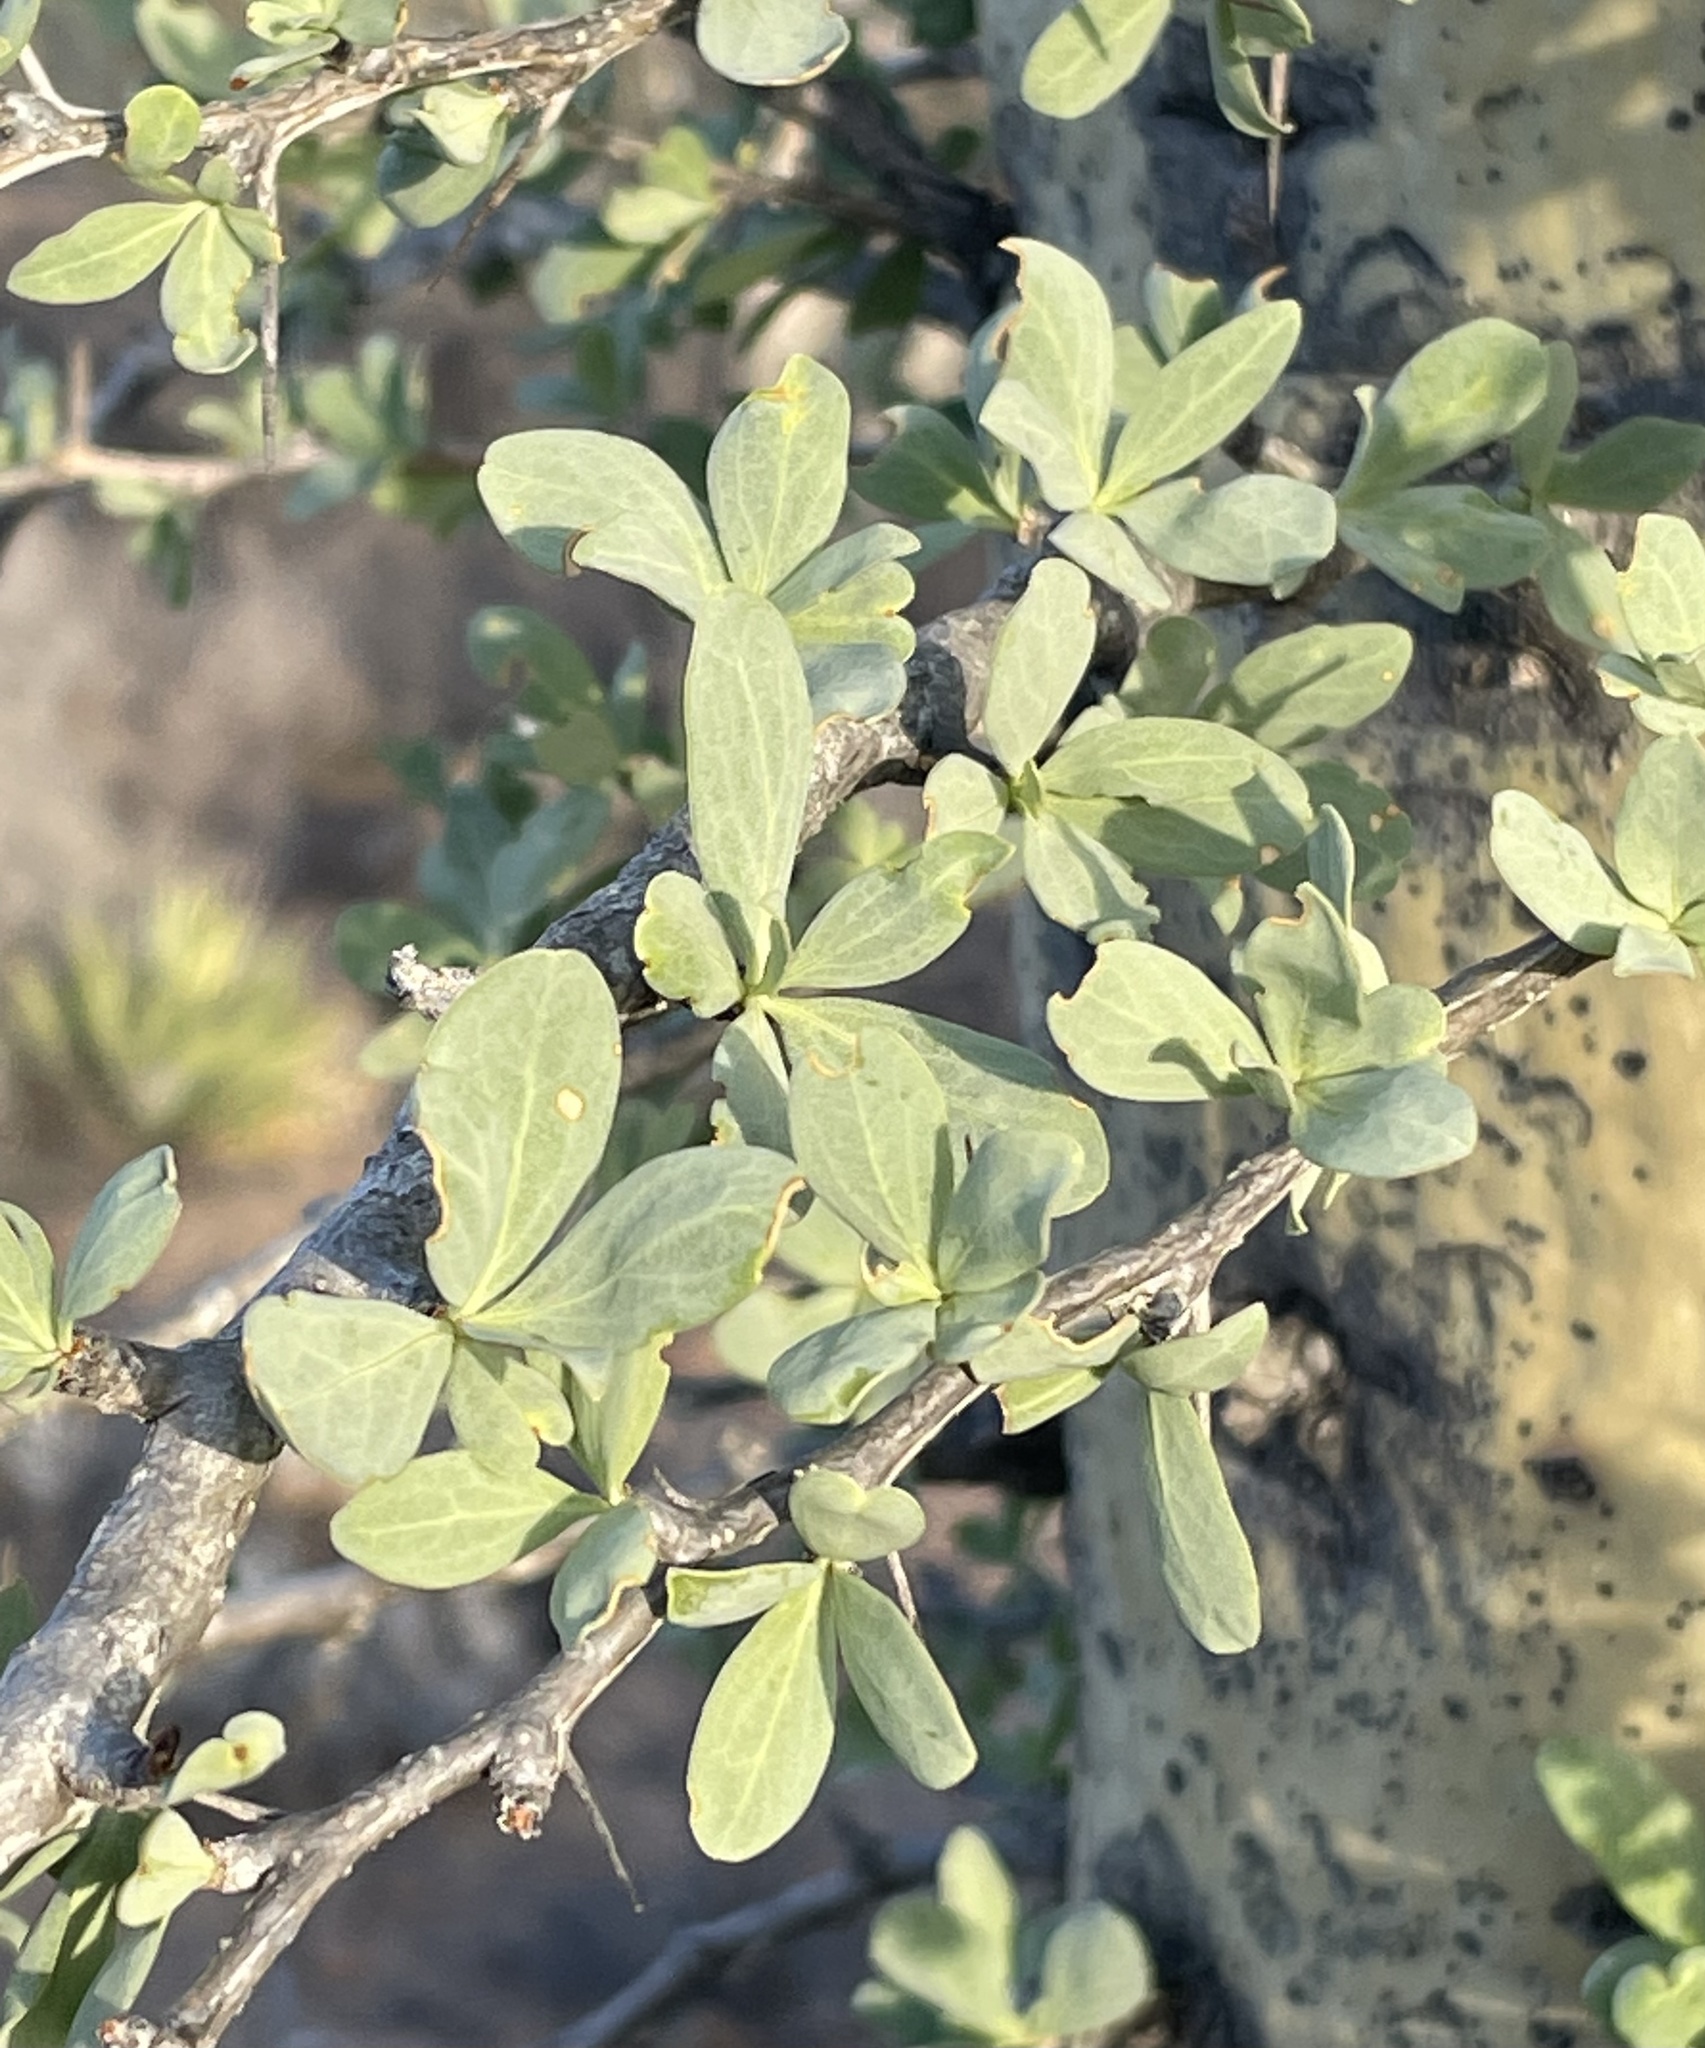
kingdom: Plantae
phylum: Tracheophyta
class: Magnoliopsida
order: Ericales
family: Fouquieriaceae
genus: Fouquieria
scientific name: Fouquieria columnaris
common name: Boojumtree
